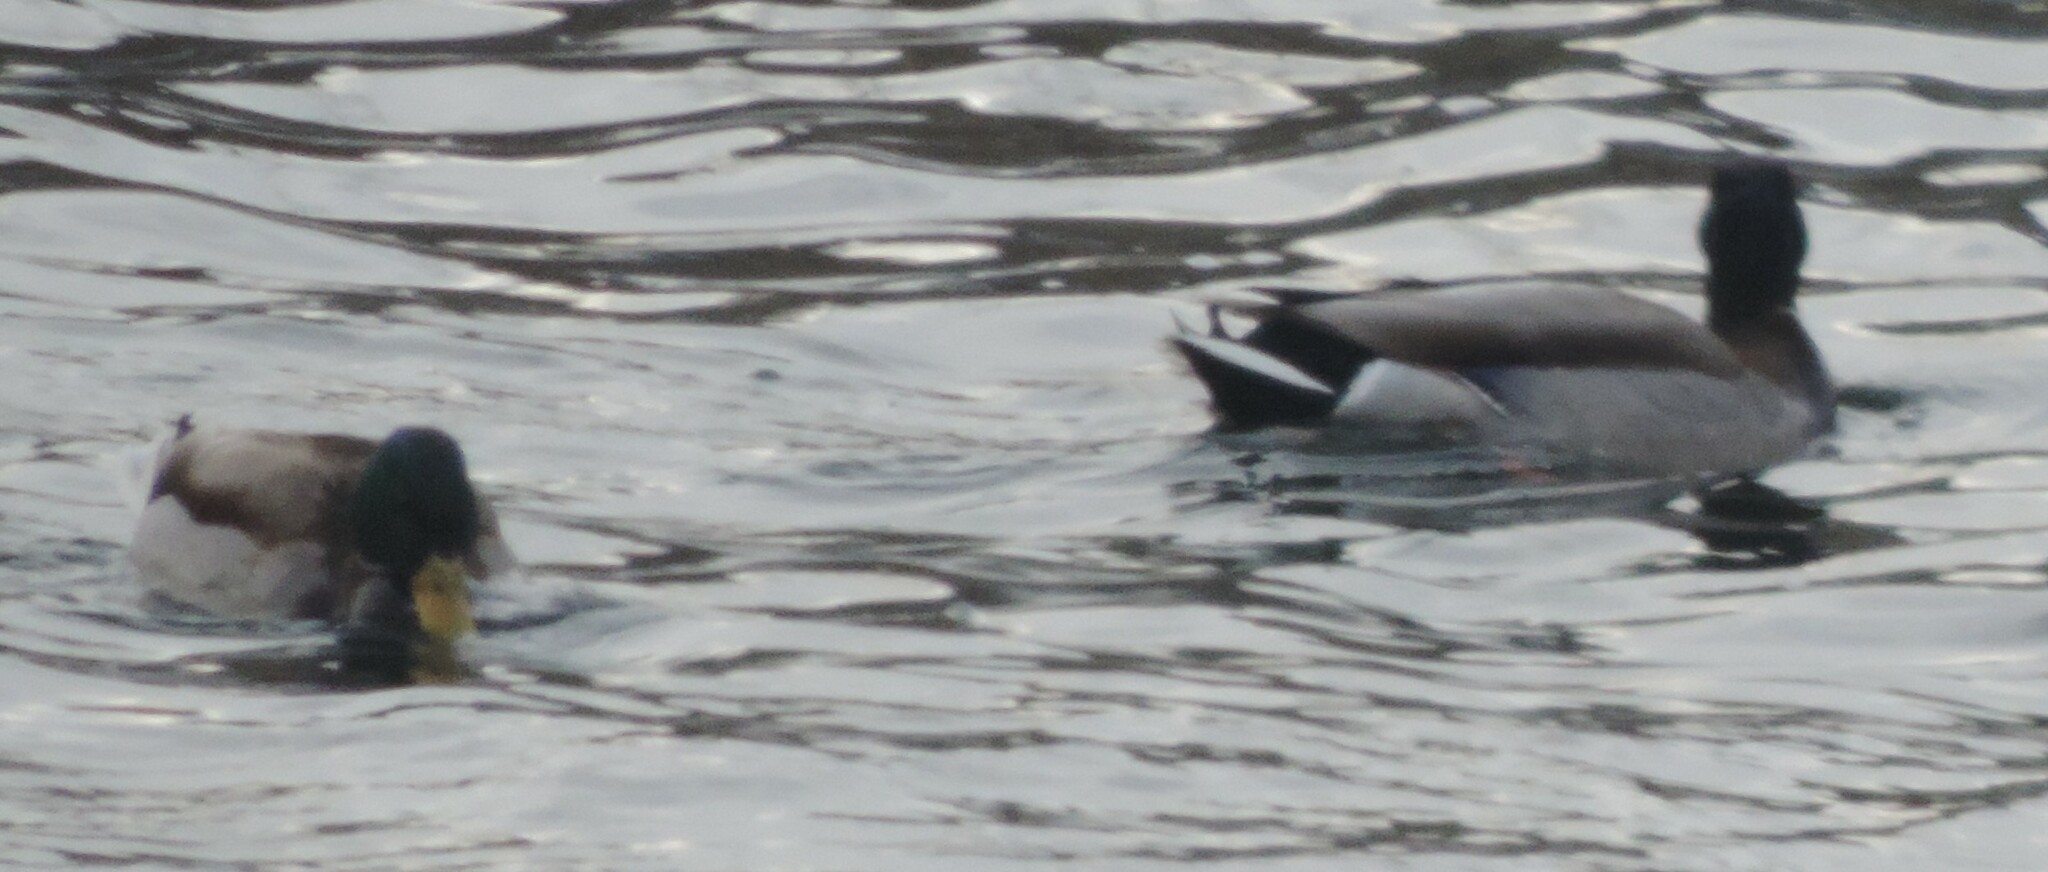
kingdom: Animalia
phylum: Chordata
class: Aves
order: Anseriformes
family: Anatidae
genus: Anas
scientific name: Anas platyrhynchos
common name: Mallard
